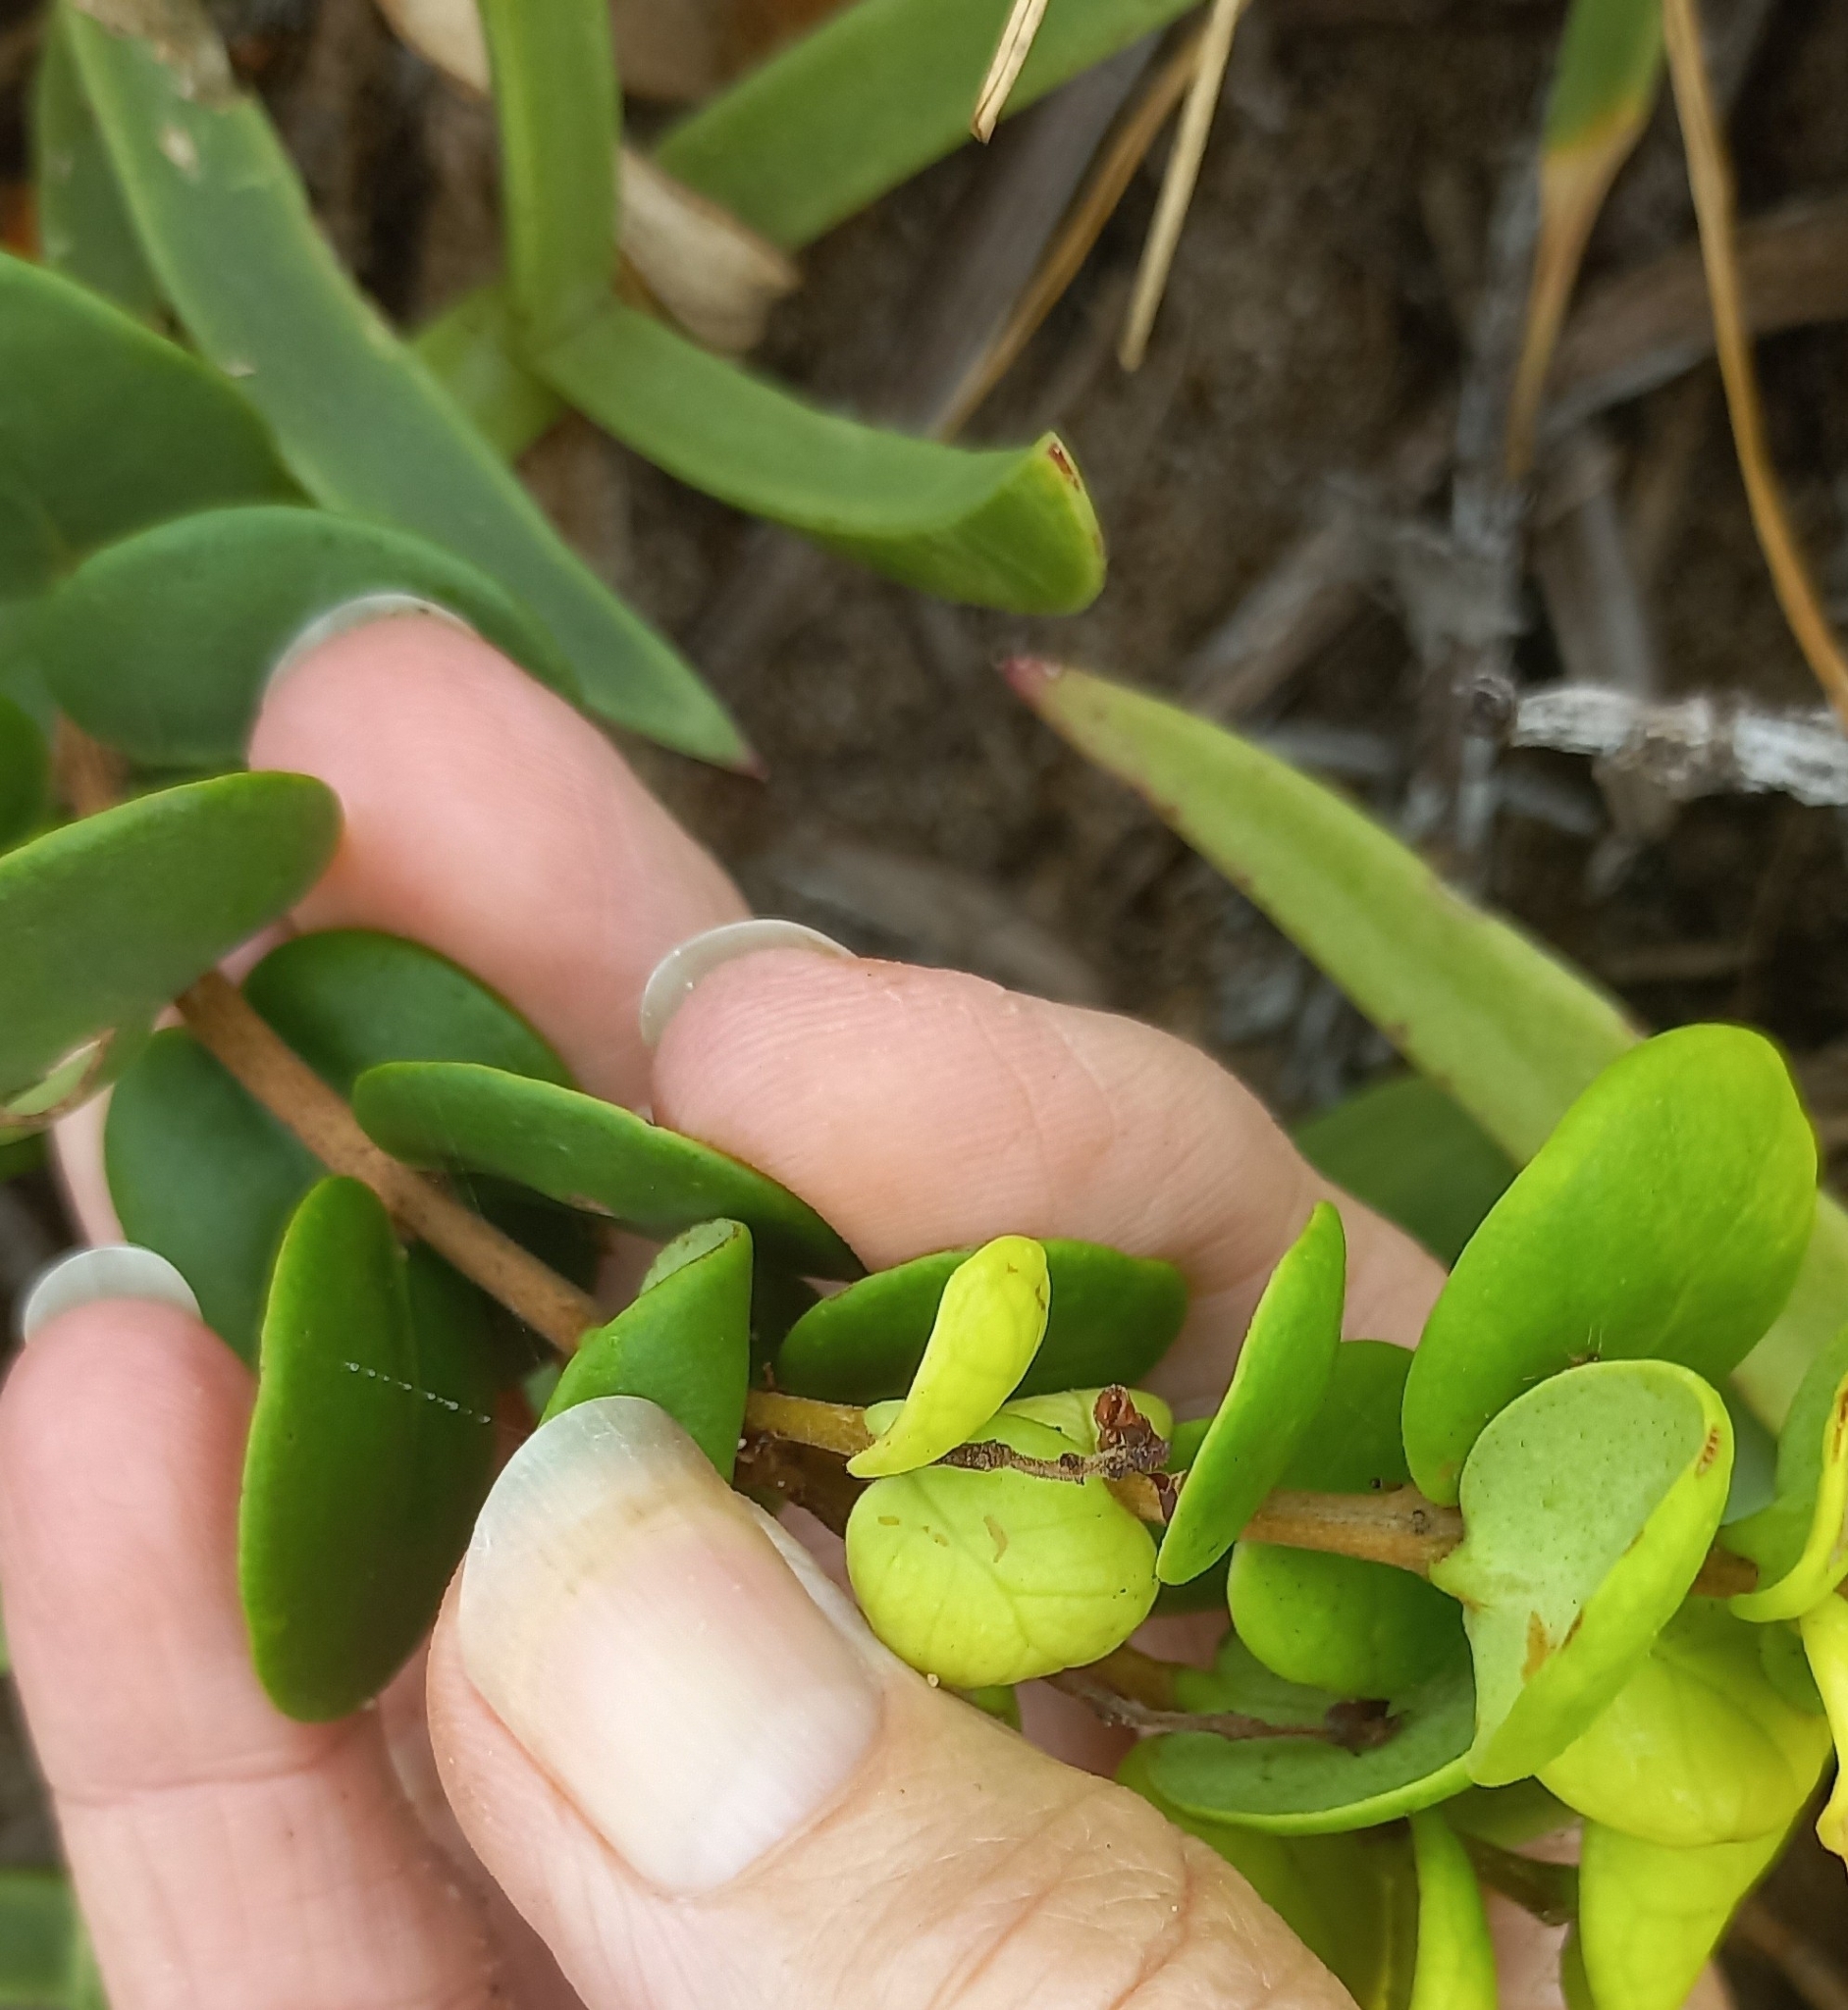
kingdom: Plantae
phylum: Tracheophyta
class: Magnoliopsida
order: Myrtales
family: Myrtaceae
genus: Eugenia
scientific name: Eugenia capensis
